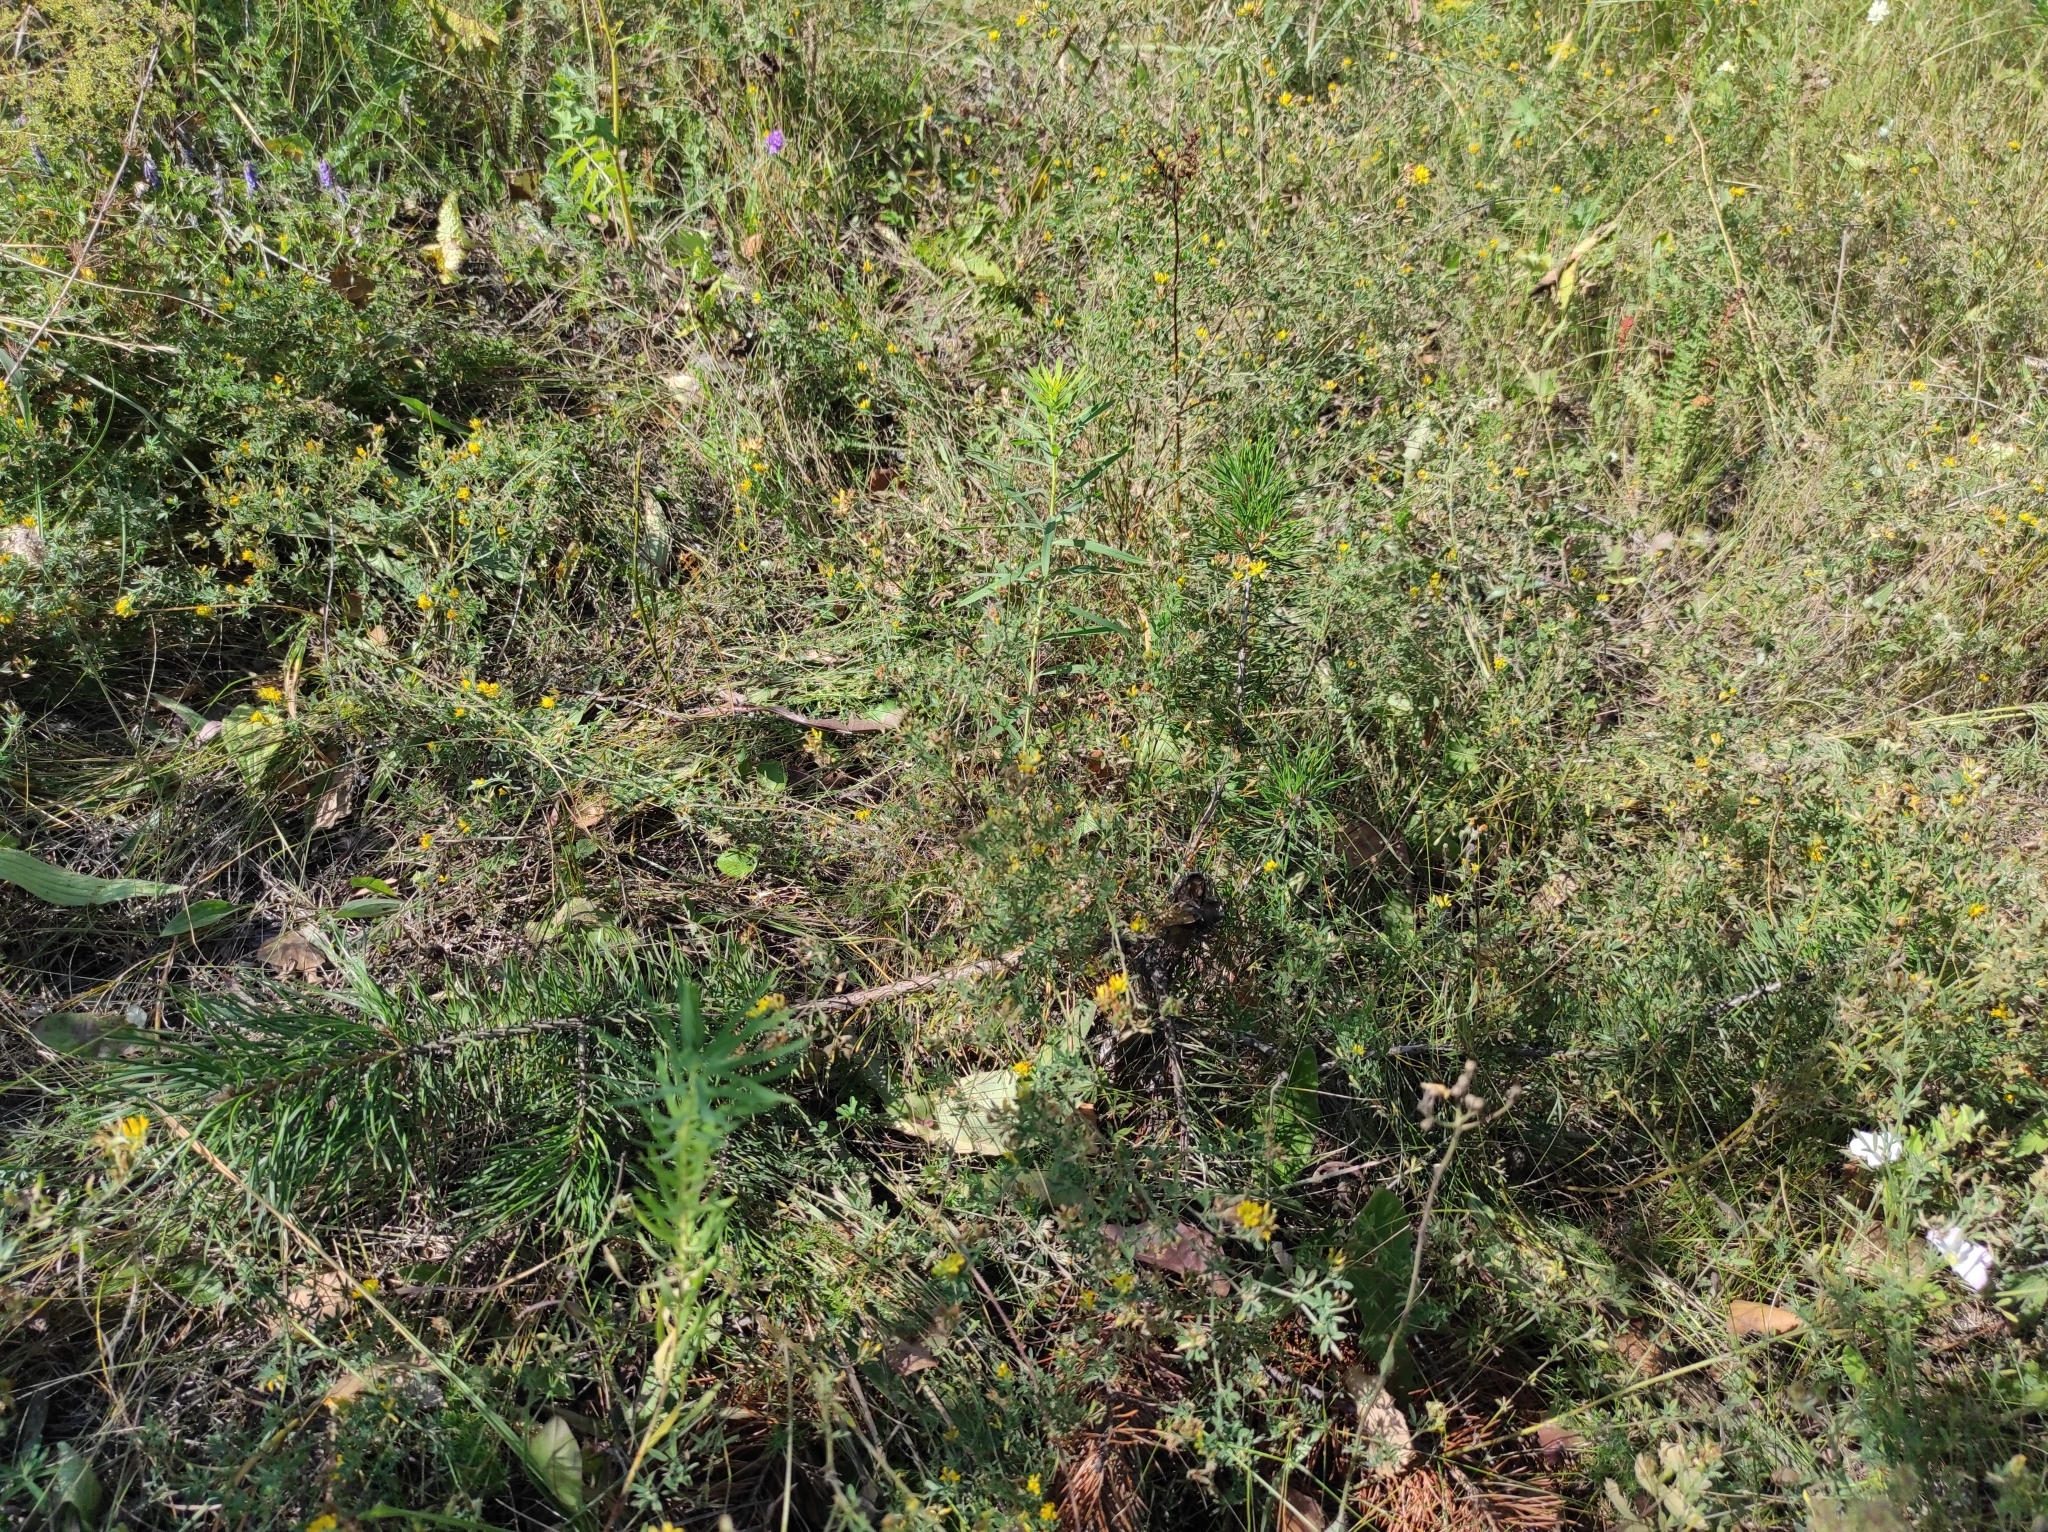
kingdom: Plantae
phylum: Tracheophyta
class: Pinopsida
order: Pinales
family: Pinaceae
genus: Pinus
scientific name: Pinus sylvestris
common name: Scots pine
